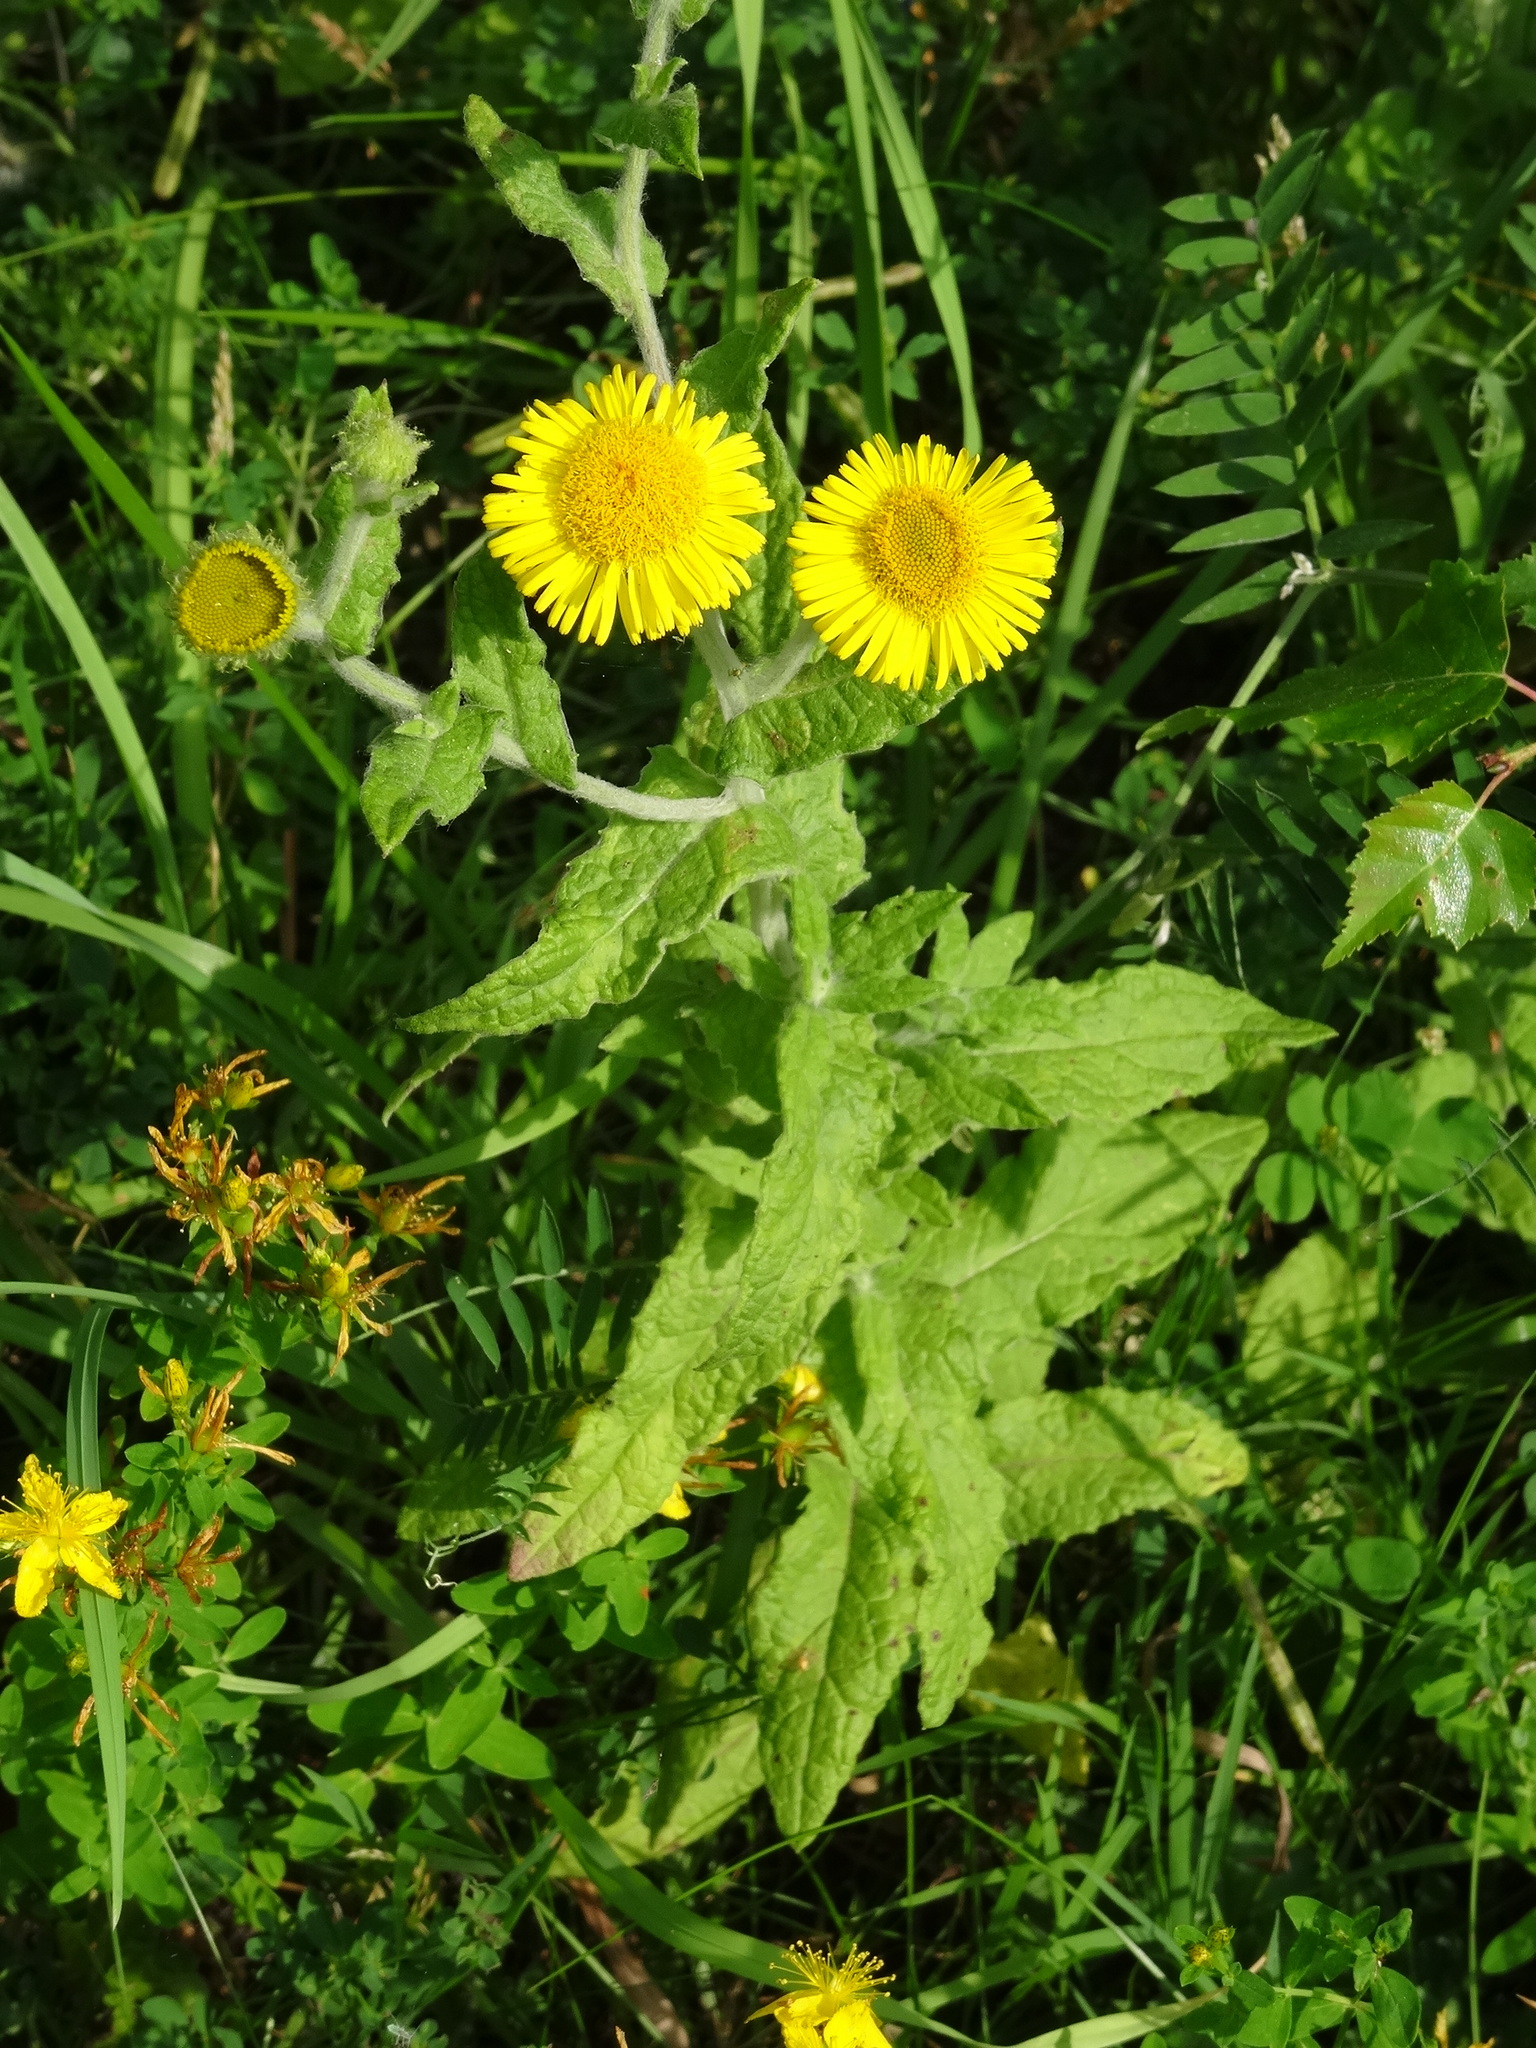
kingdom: Plantae
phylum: Tracheophyta
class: Magnoliopsida
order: Asterales
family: Asteraceae
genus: Pulicaria
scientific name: Pulicaria dysenterica
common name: Common fleabane
